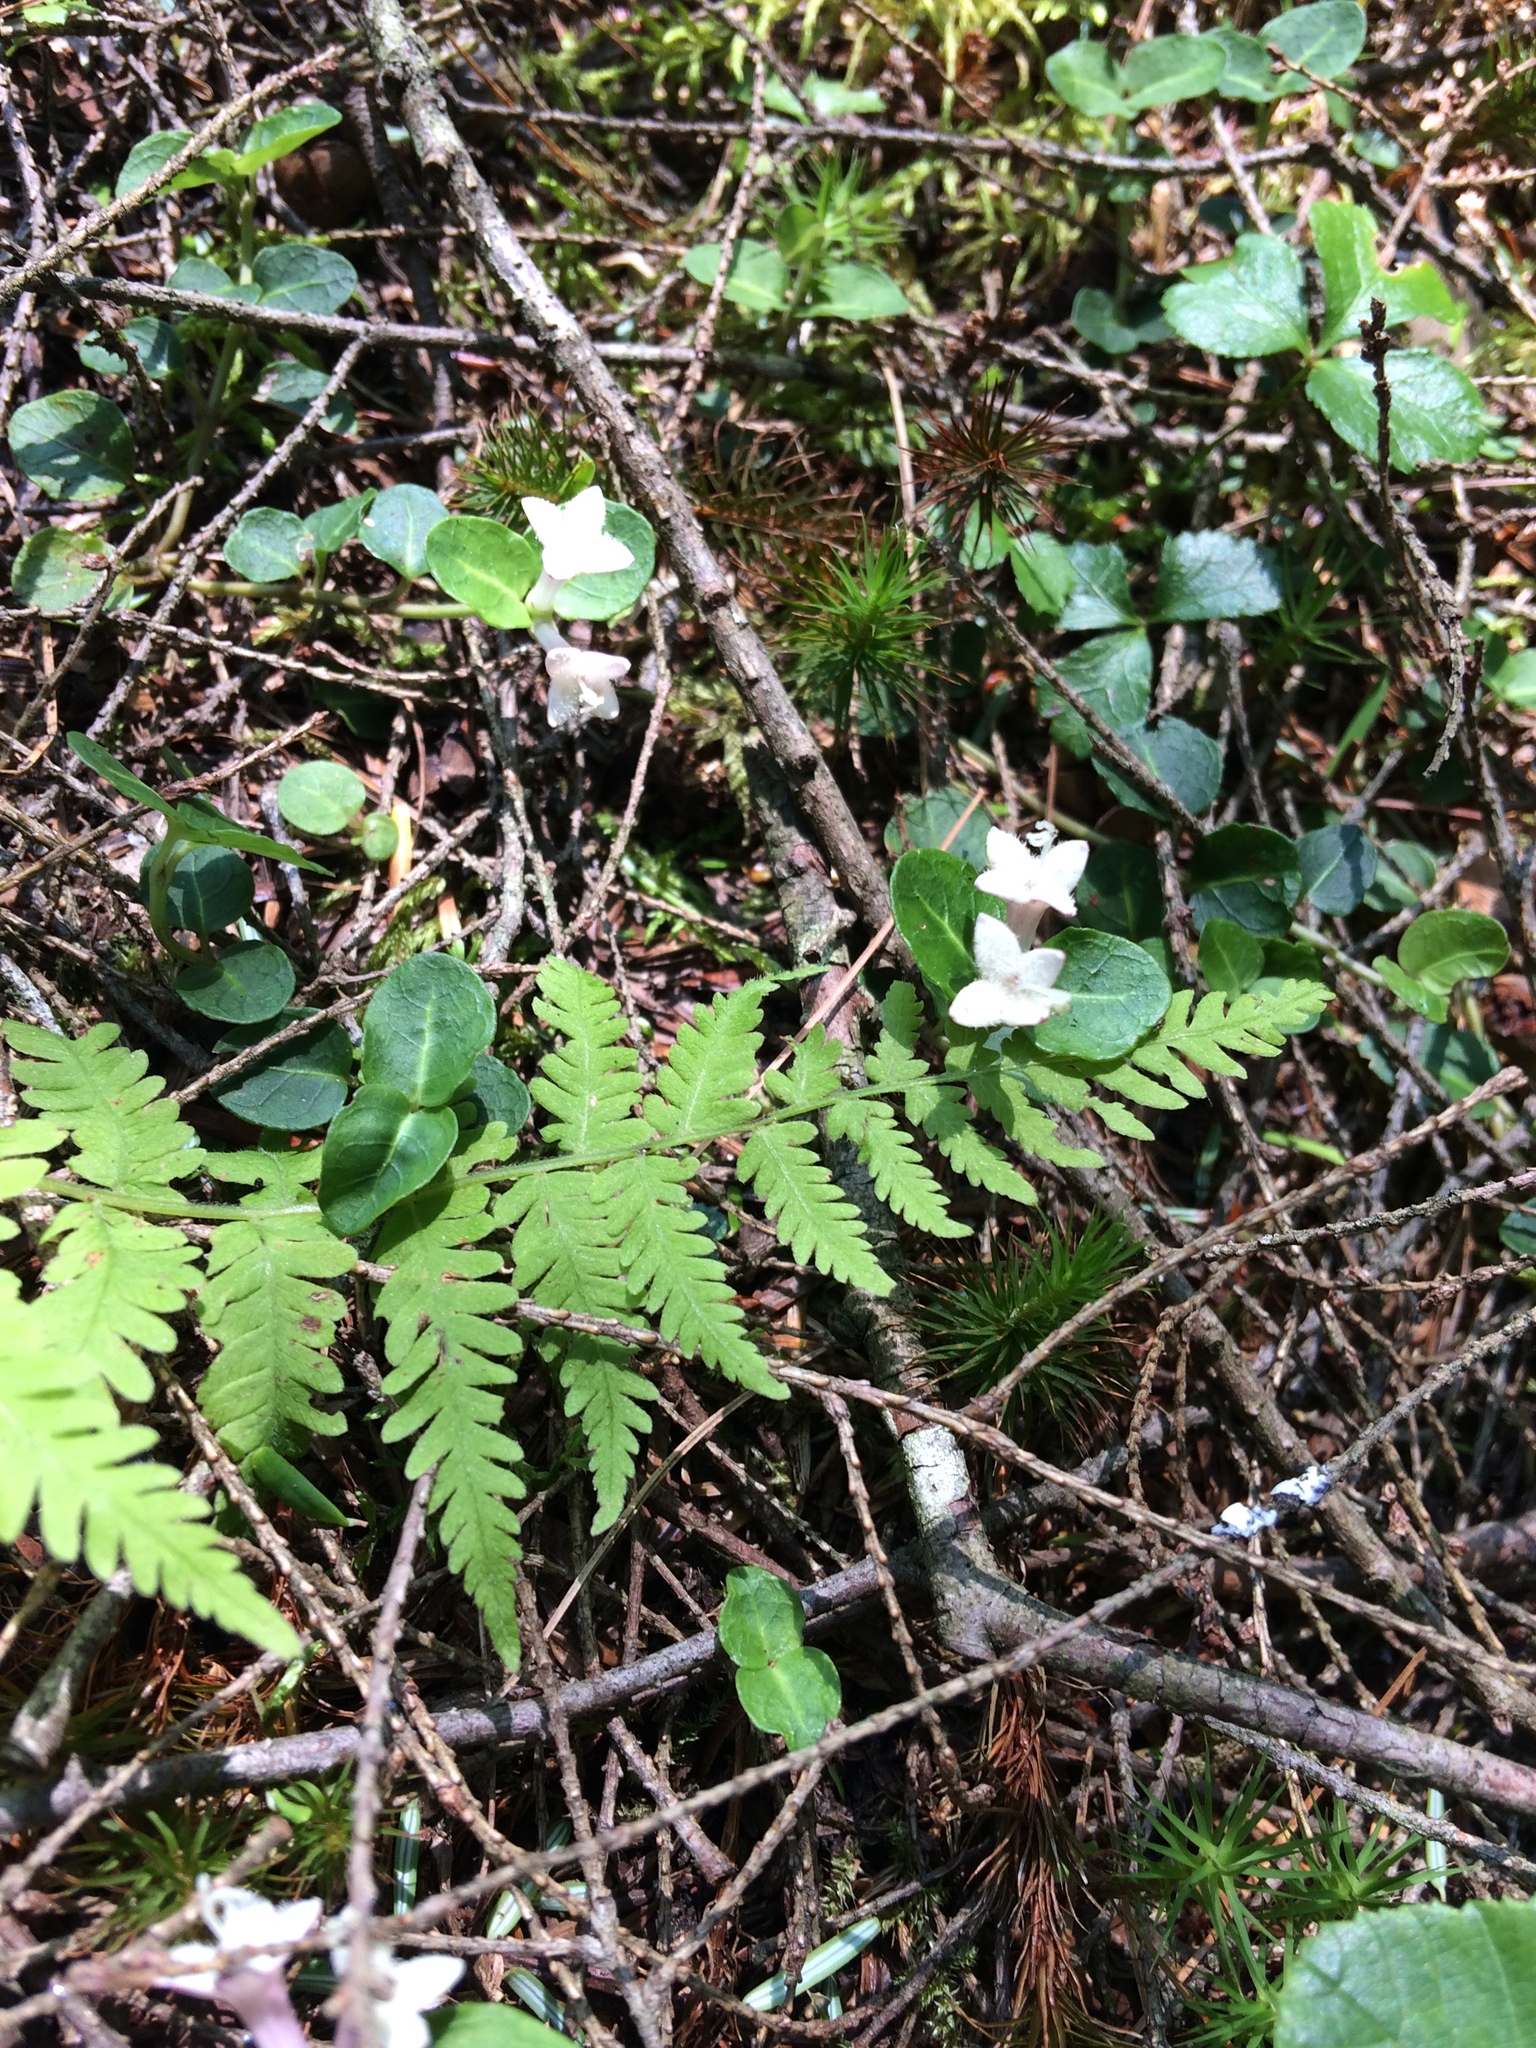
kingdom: Plantae
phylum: Tracheophyta
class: Magnoliopsida
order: Gentianales
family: Rubiaceae
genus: Mitchella
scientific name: Mitchella repens
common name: Partridge-berry
